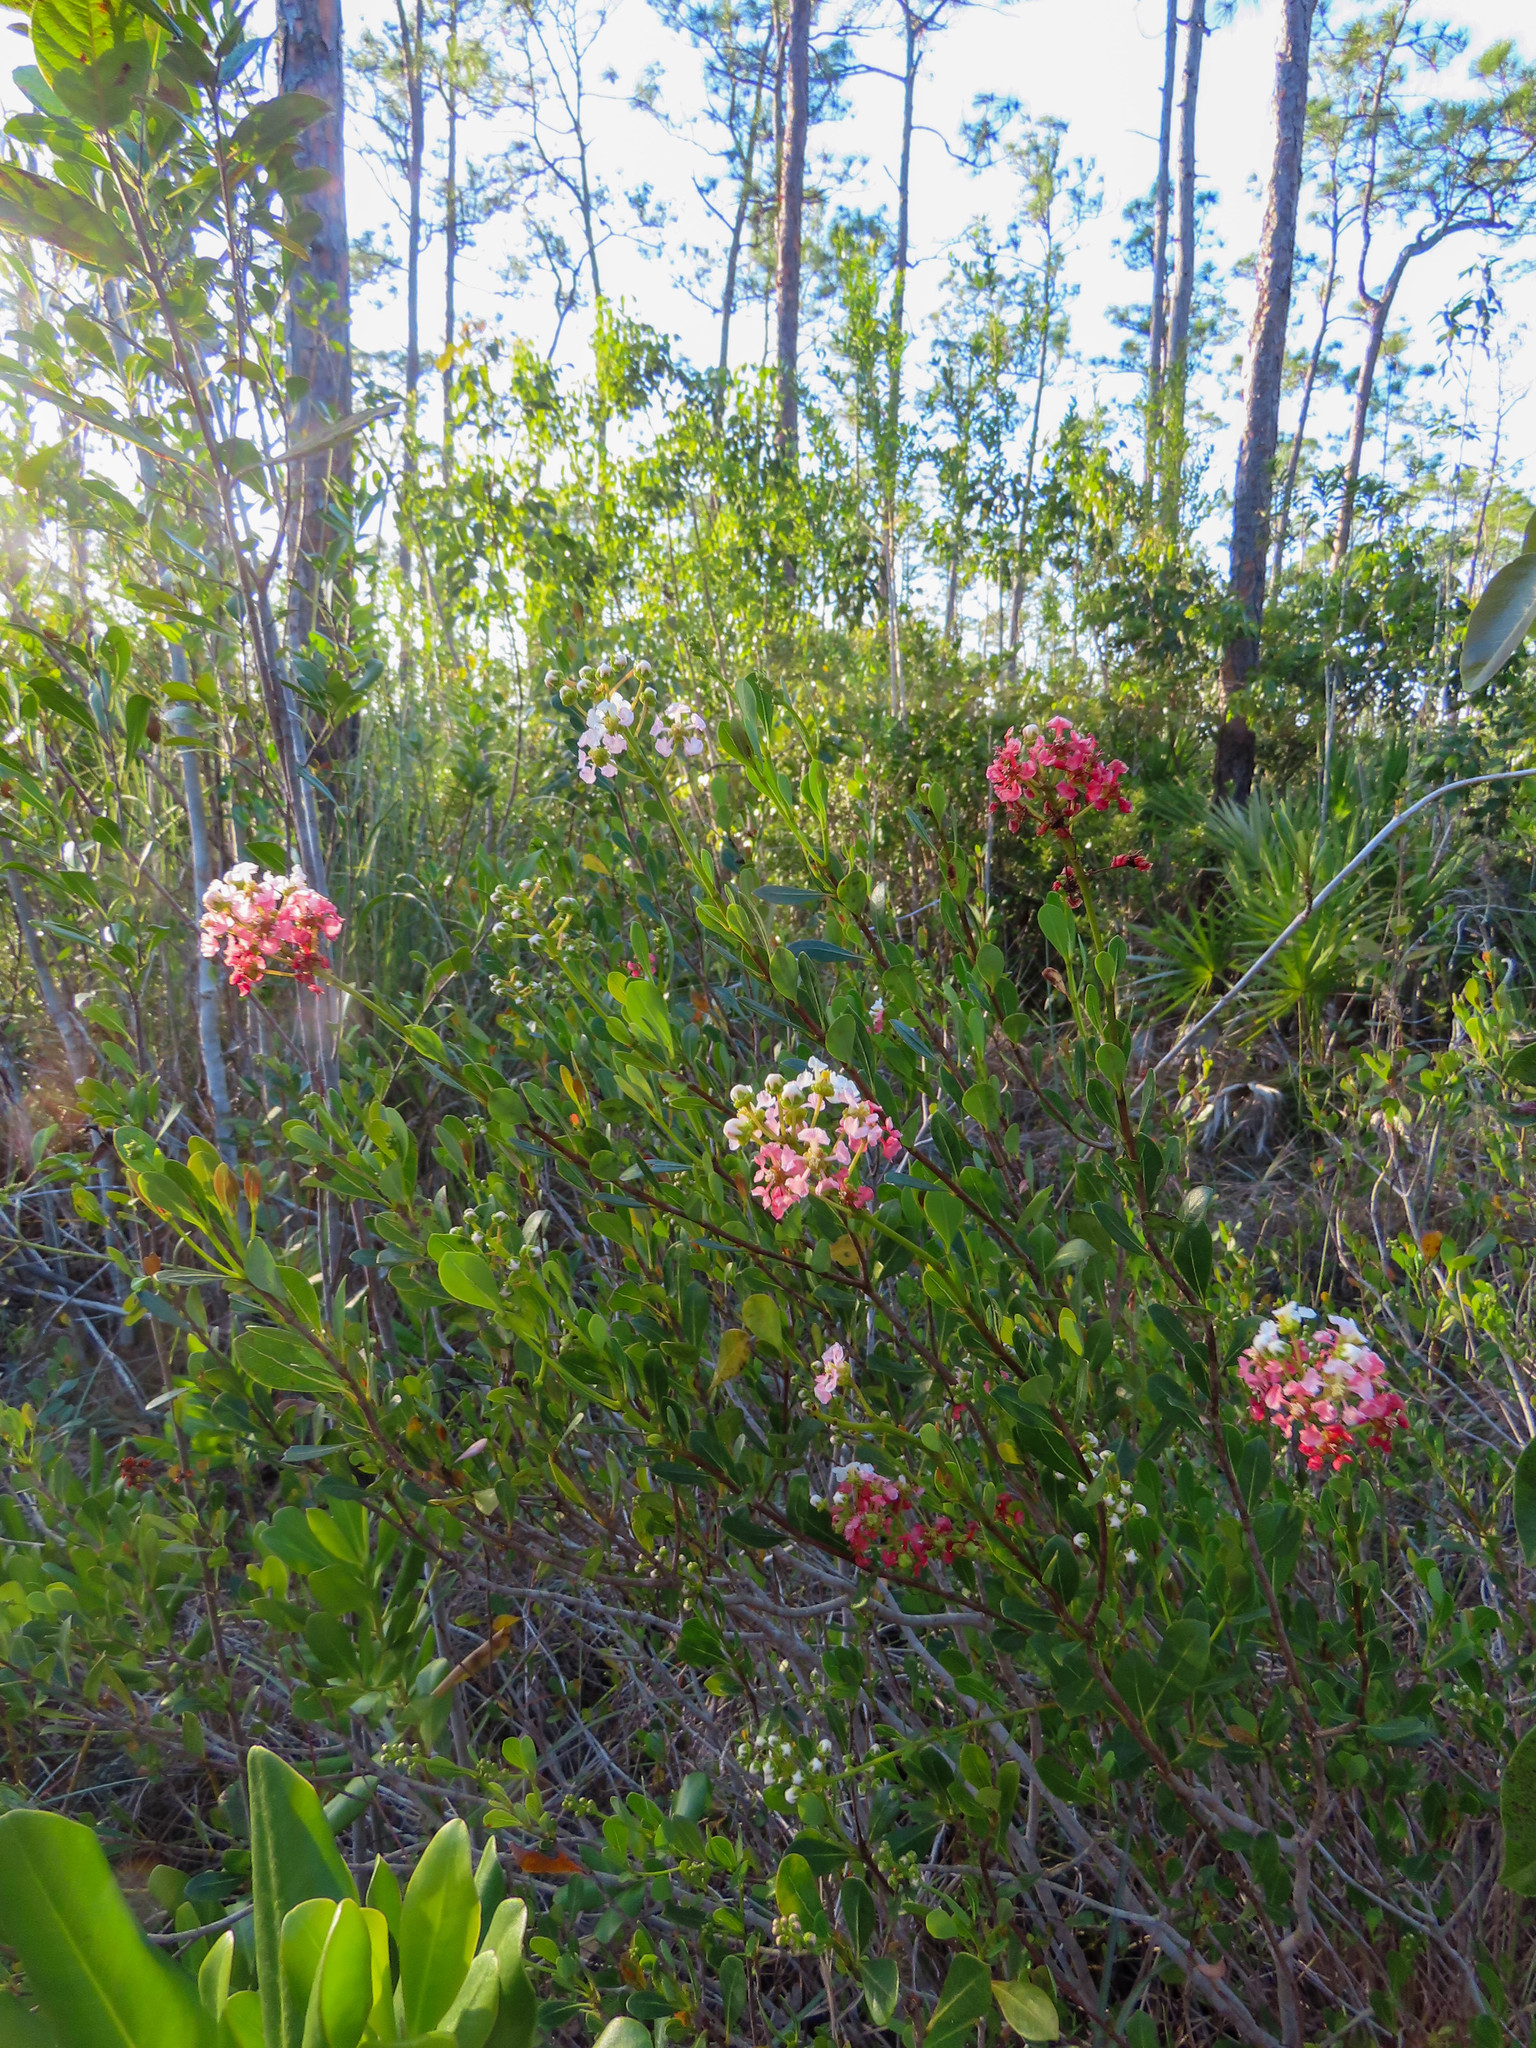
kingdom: Plantae
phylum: Tracheophyta
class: Magnoliopsida
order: Malpighiales
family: Malpighiaceae
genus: Byrsonima
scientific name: Byrsonima lucida
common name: Clam-cherry
